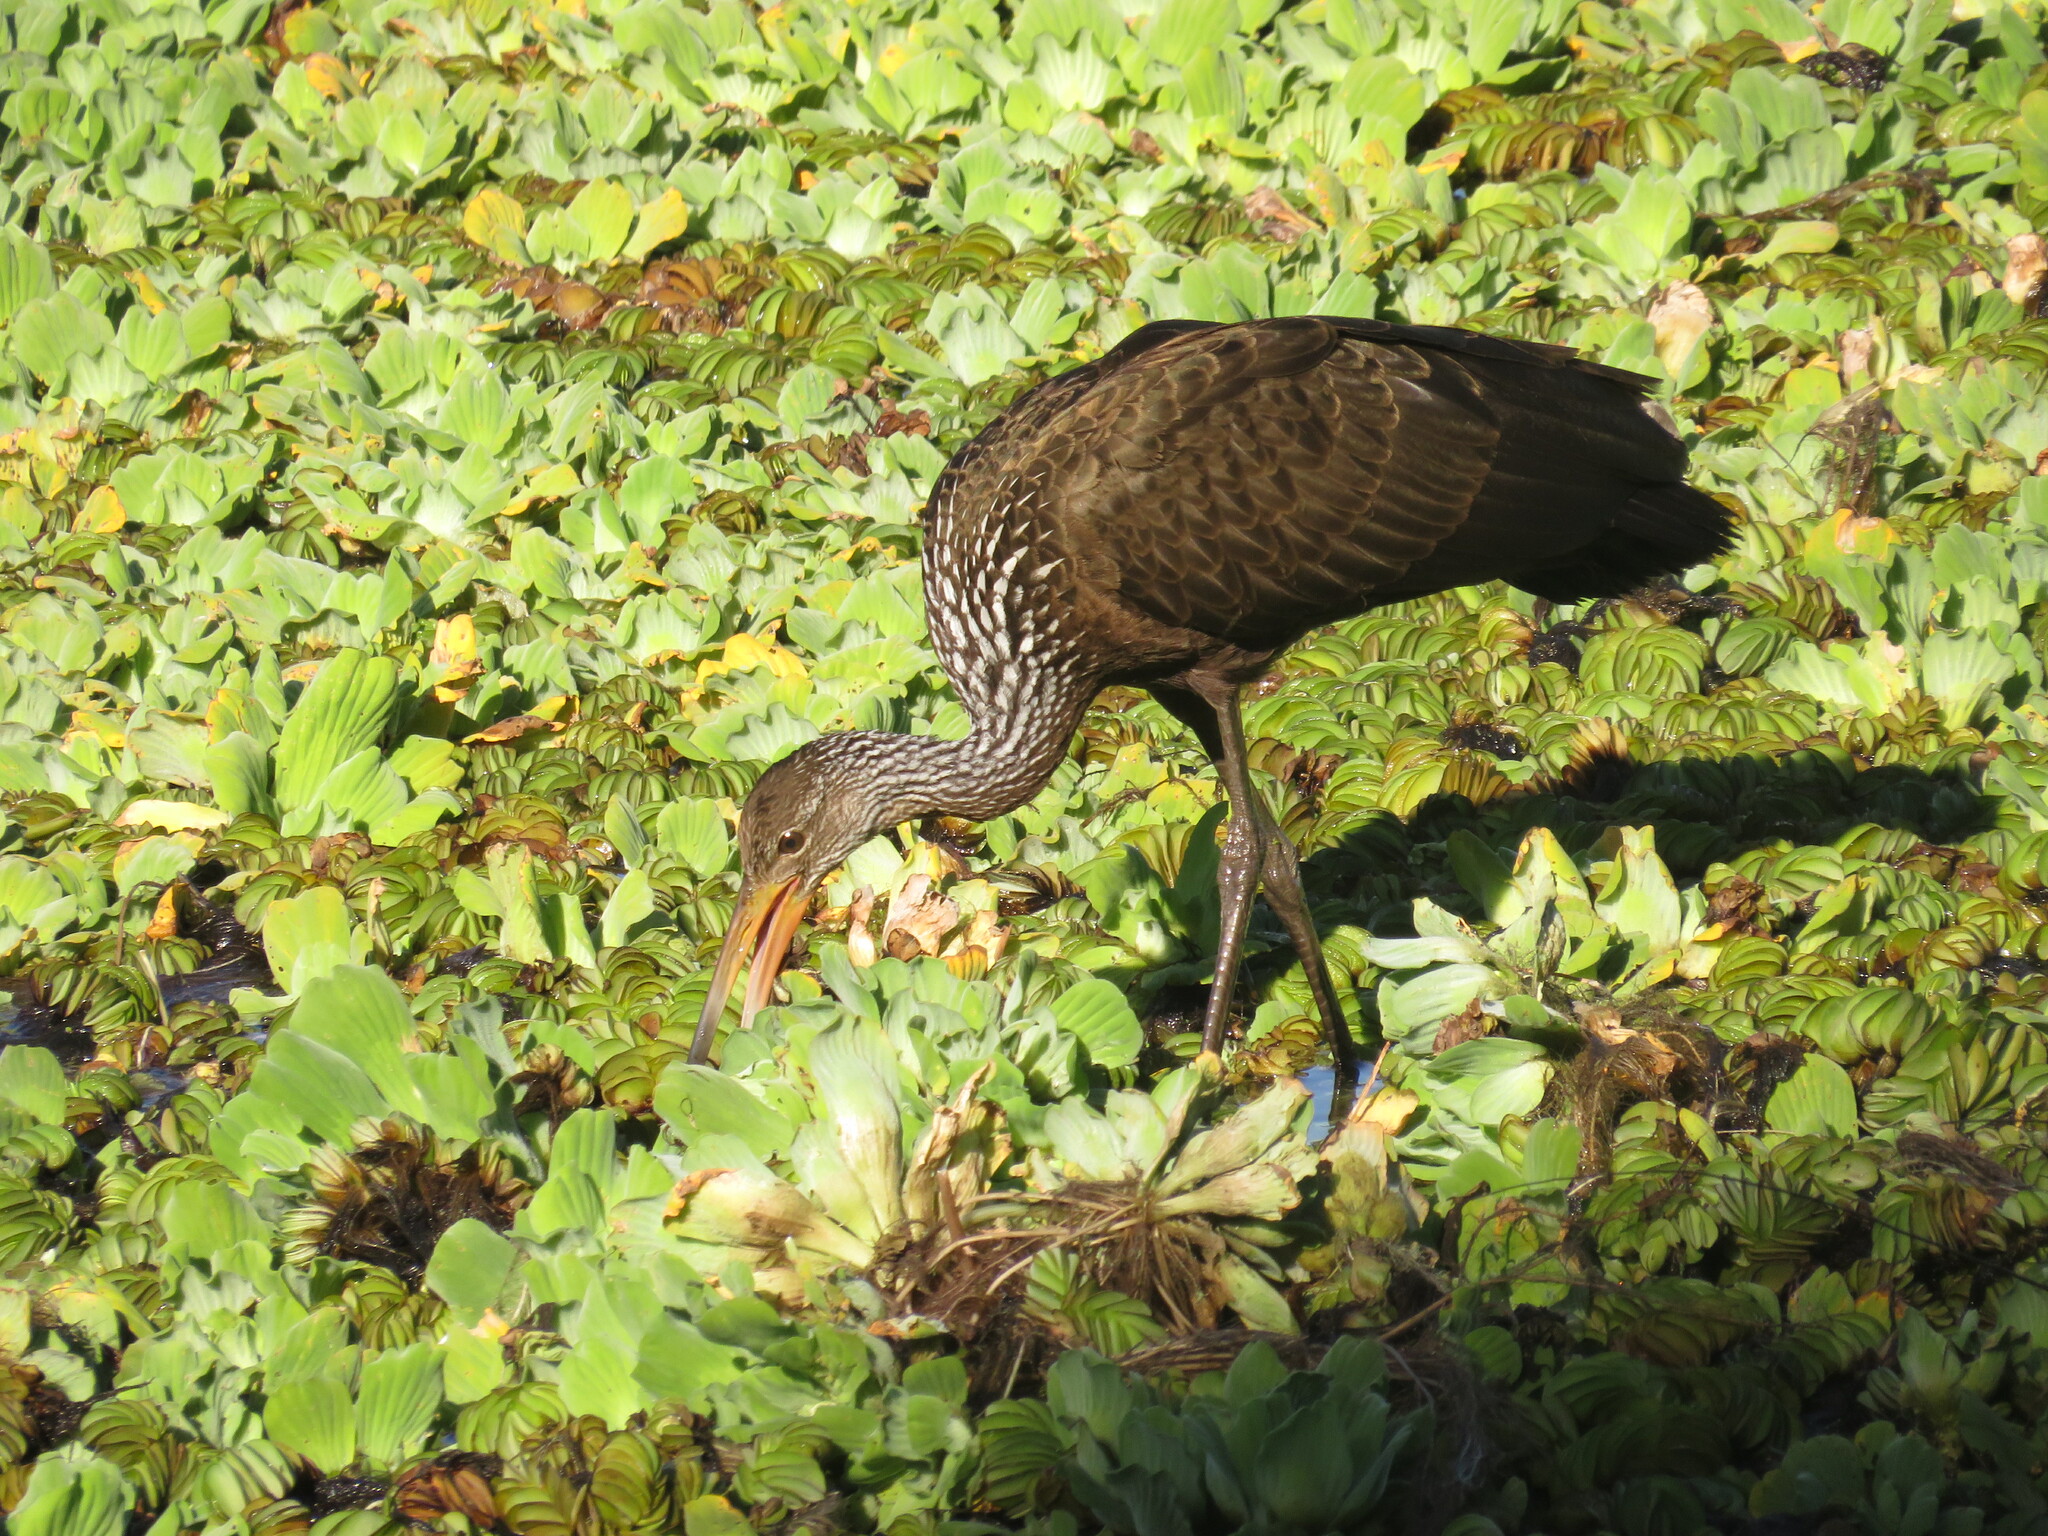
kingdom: Animalia
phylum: Chordata
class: Aves
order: Gruiformes
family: Aramidae
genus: Aramus
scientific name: Aramus guarauna
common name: Limpkin
